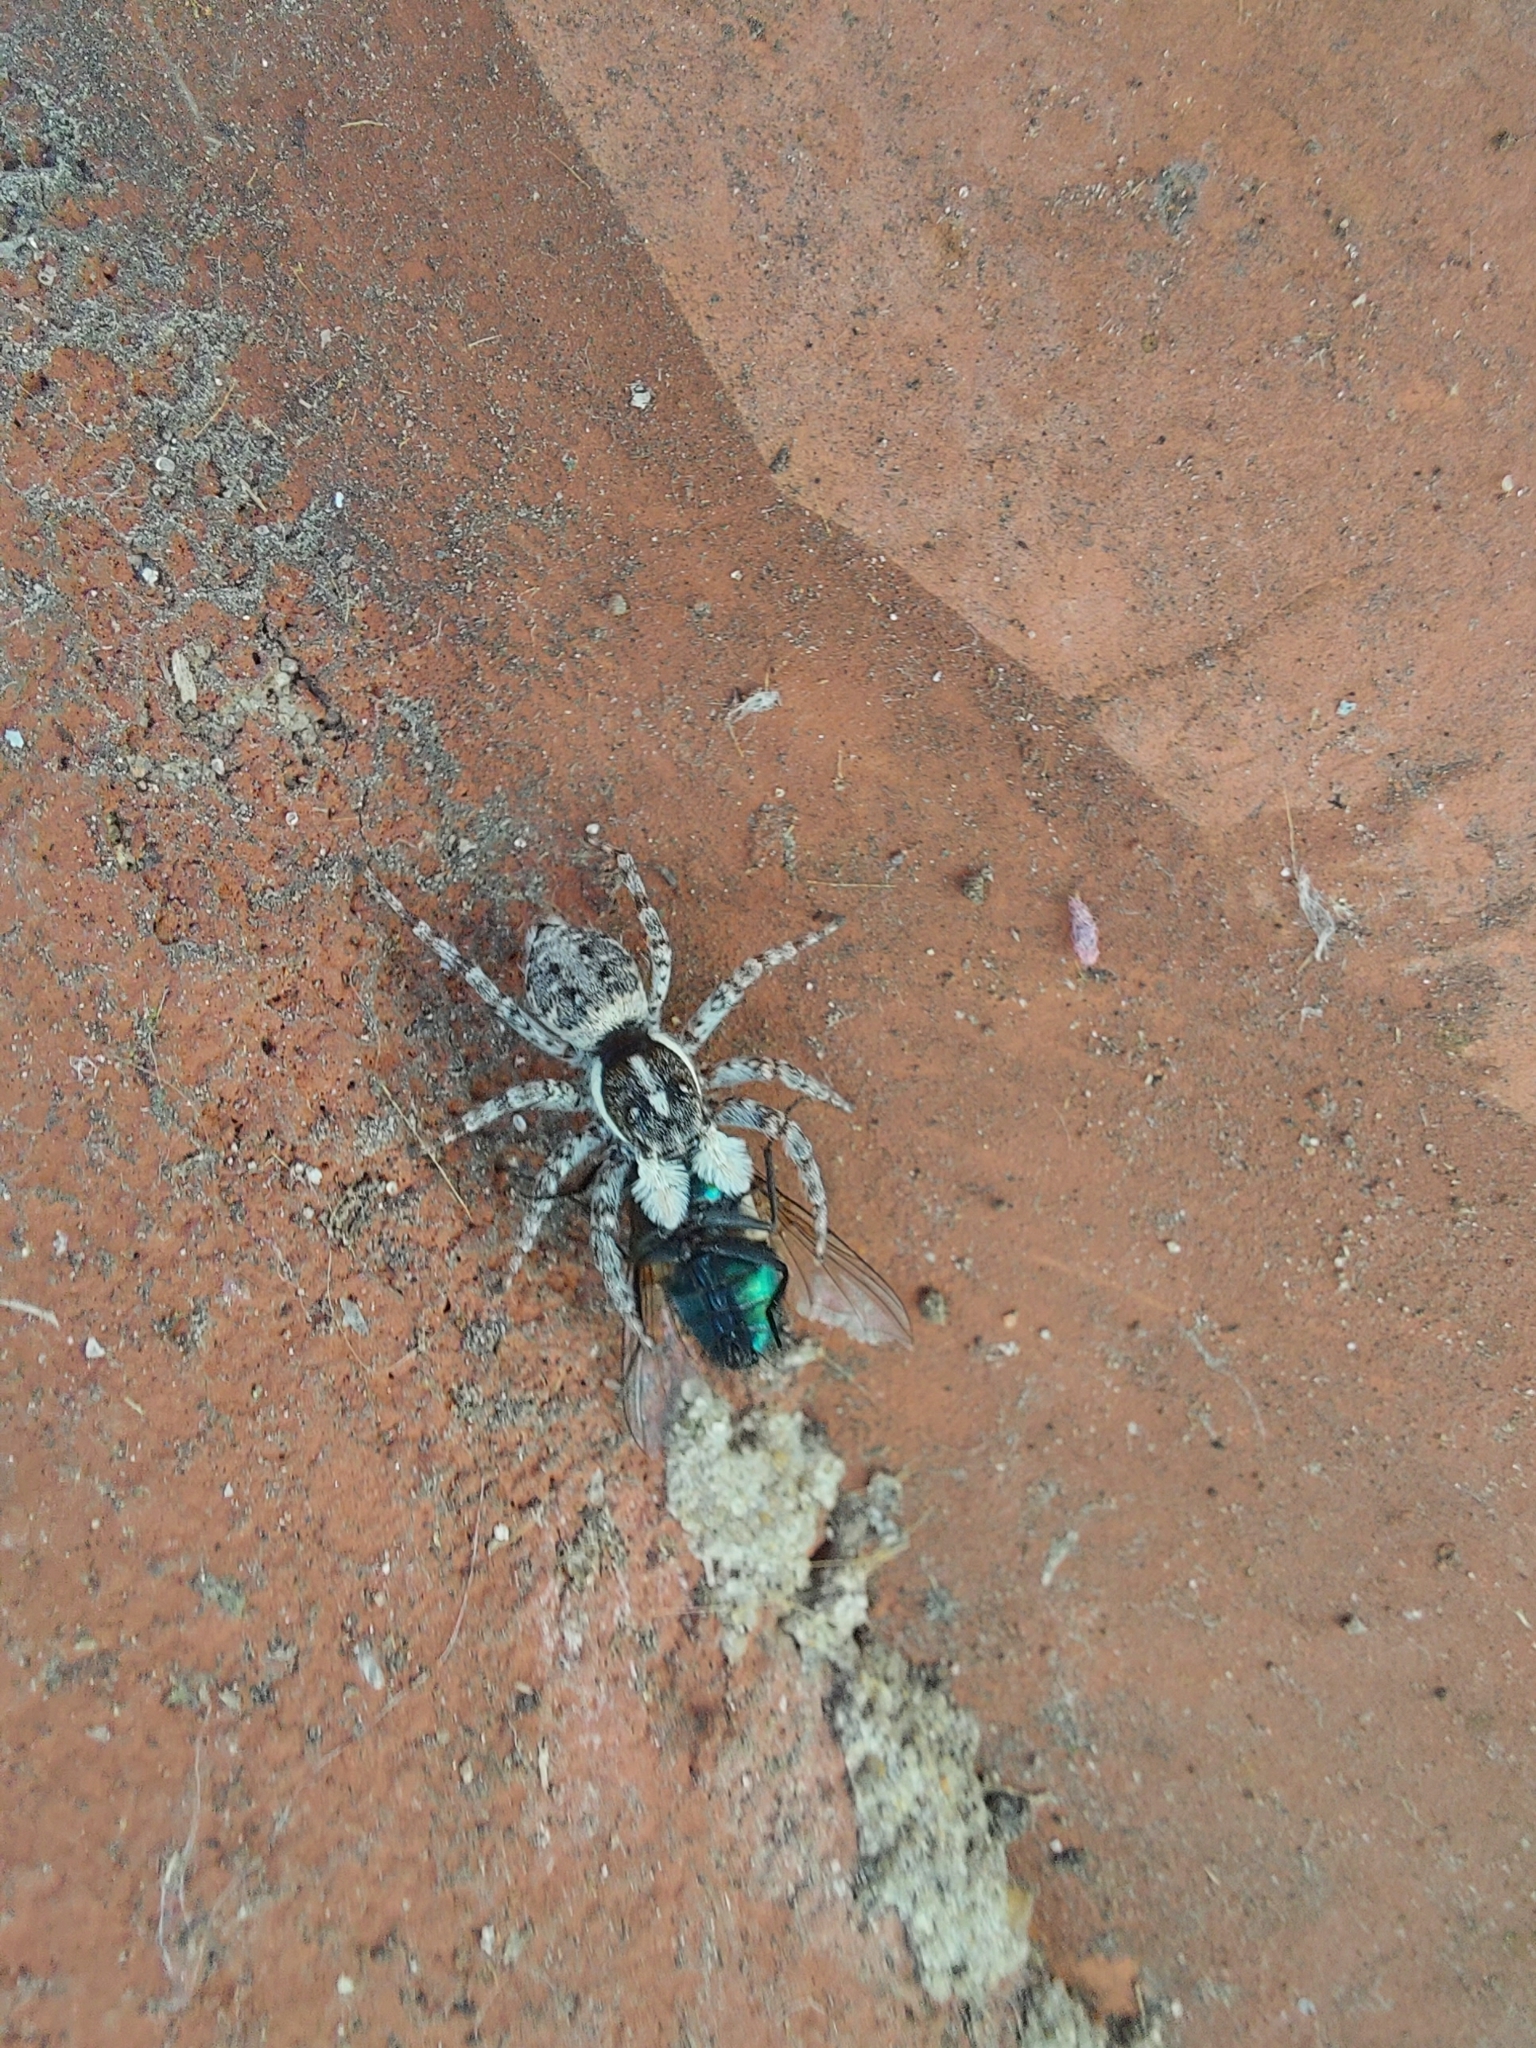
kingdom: Animalia
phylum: Arthropoda
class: Arachnida
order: Araneae
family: Salticidae
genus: Menemerus
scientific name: Menemerus semilimbatus
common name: Jumping spider
